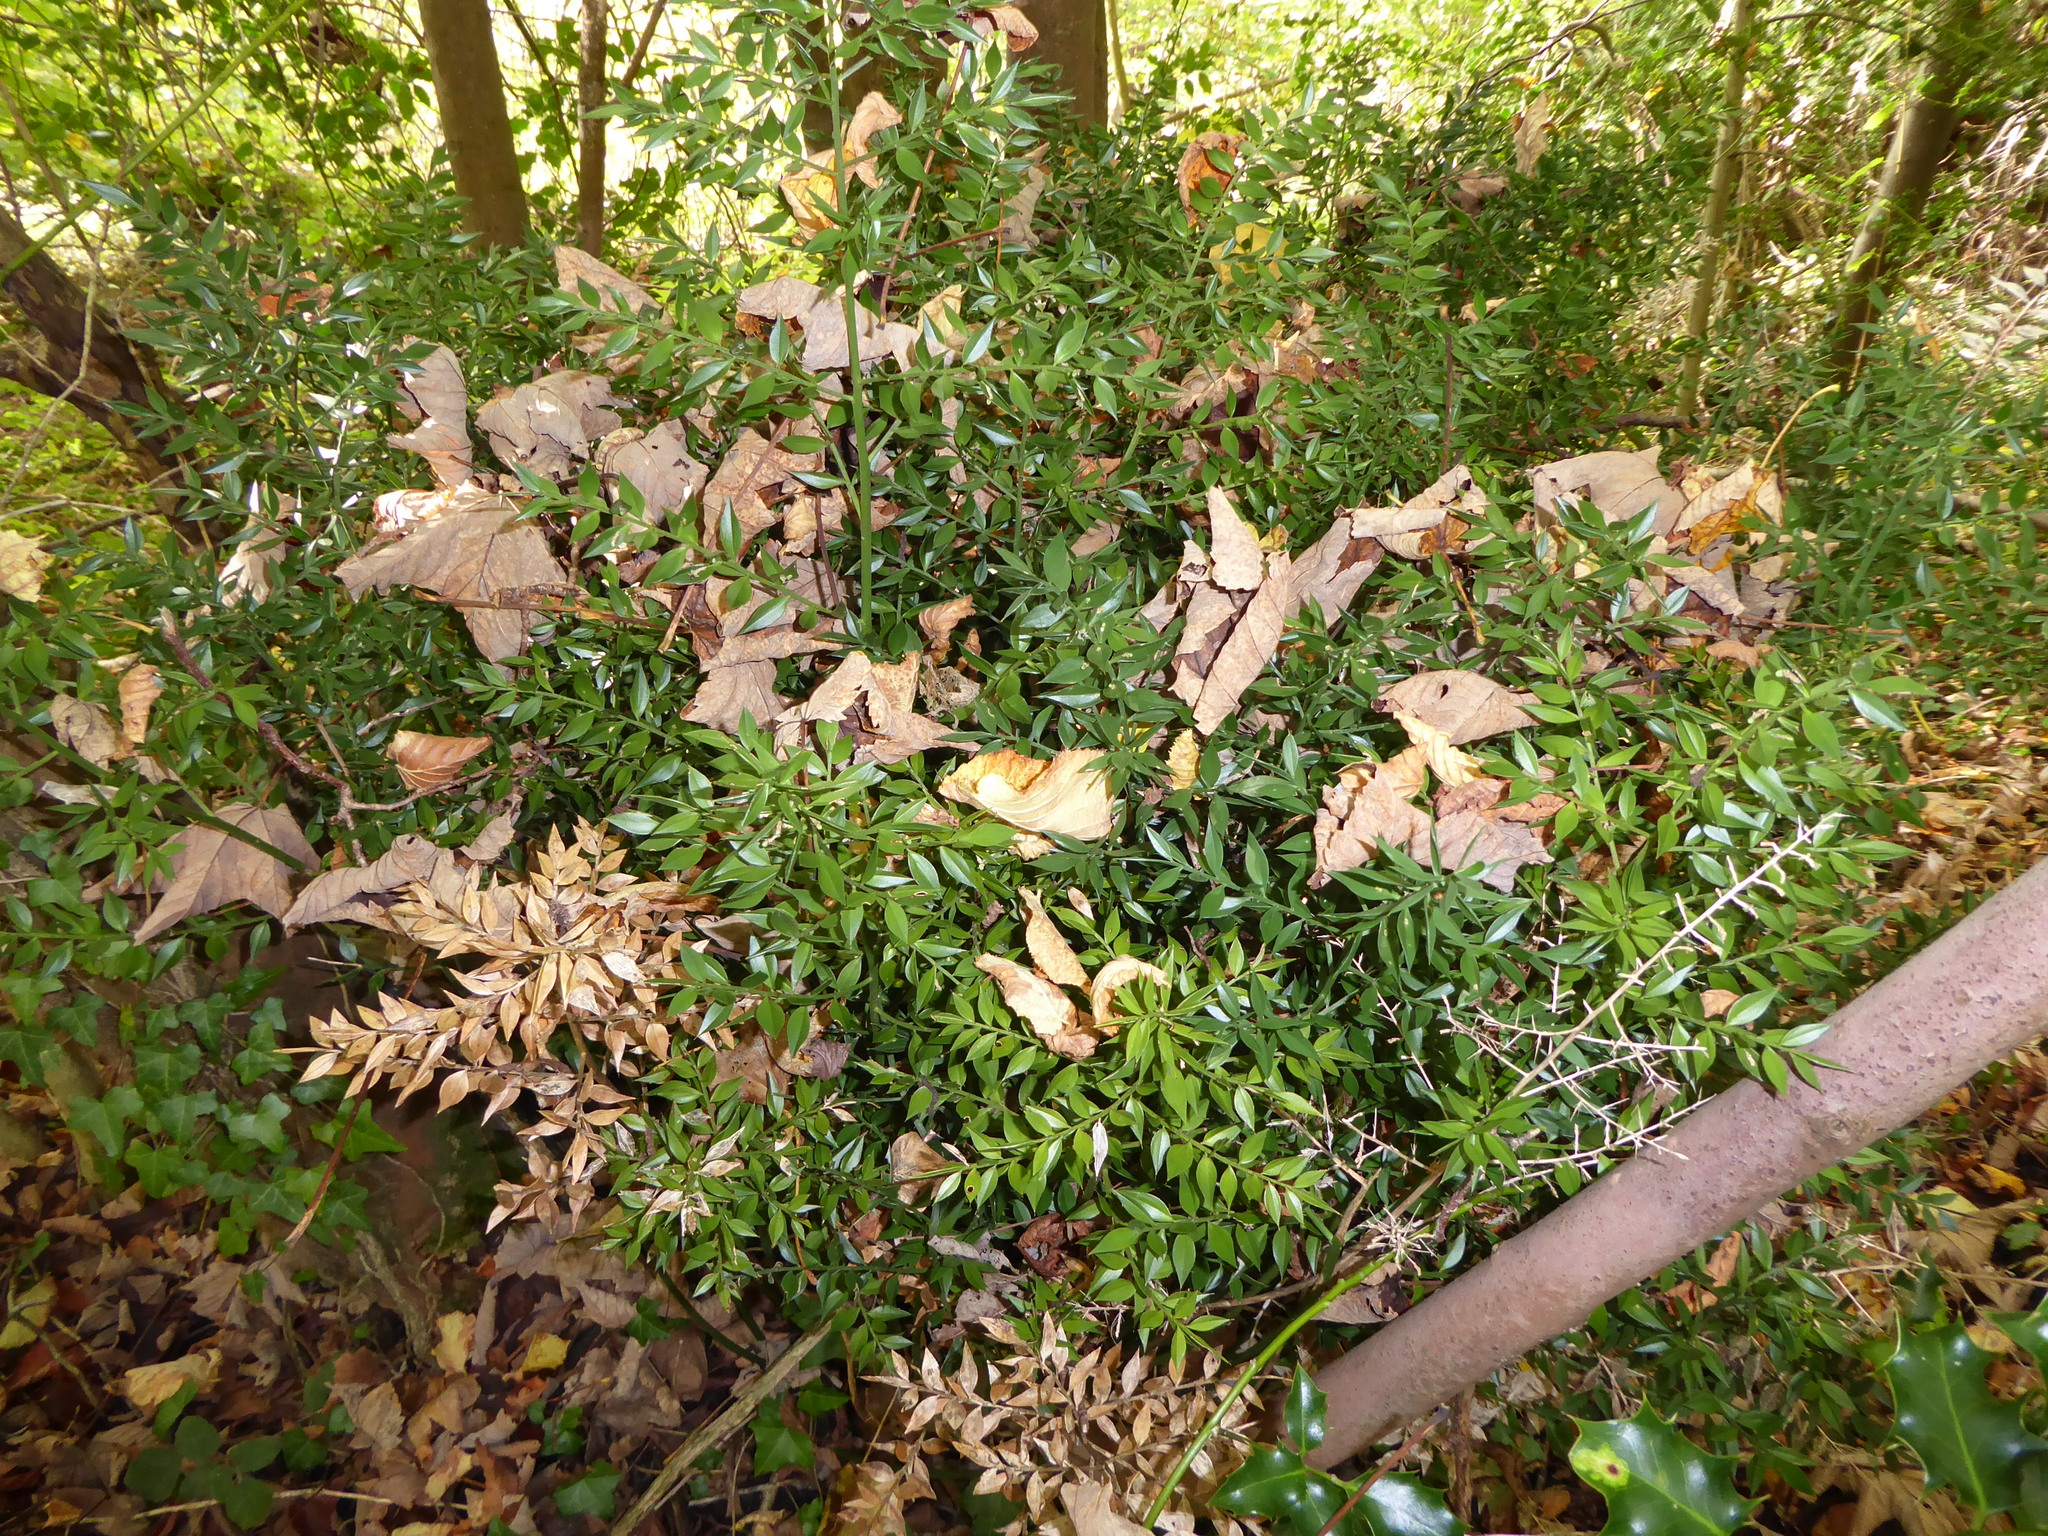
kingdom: Plantae
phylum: Tracheophyta
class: Liliopsida
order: Asparagales
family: Asparagaceae
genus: Ruscus
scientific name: Ruscus aculeatus
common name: Butcher's-broom
